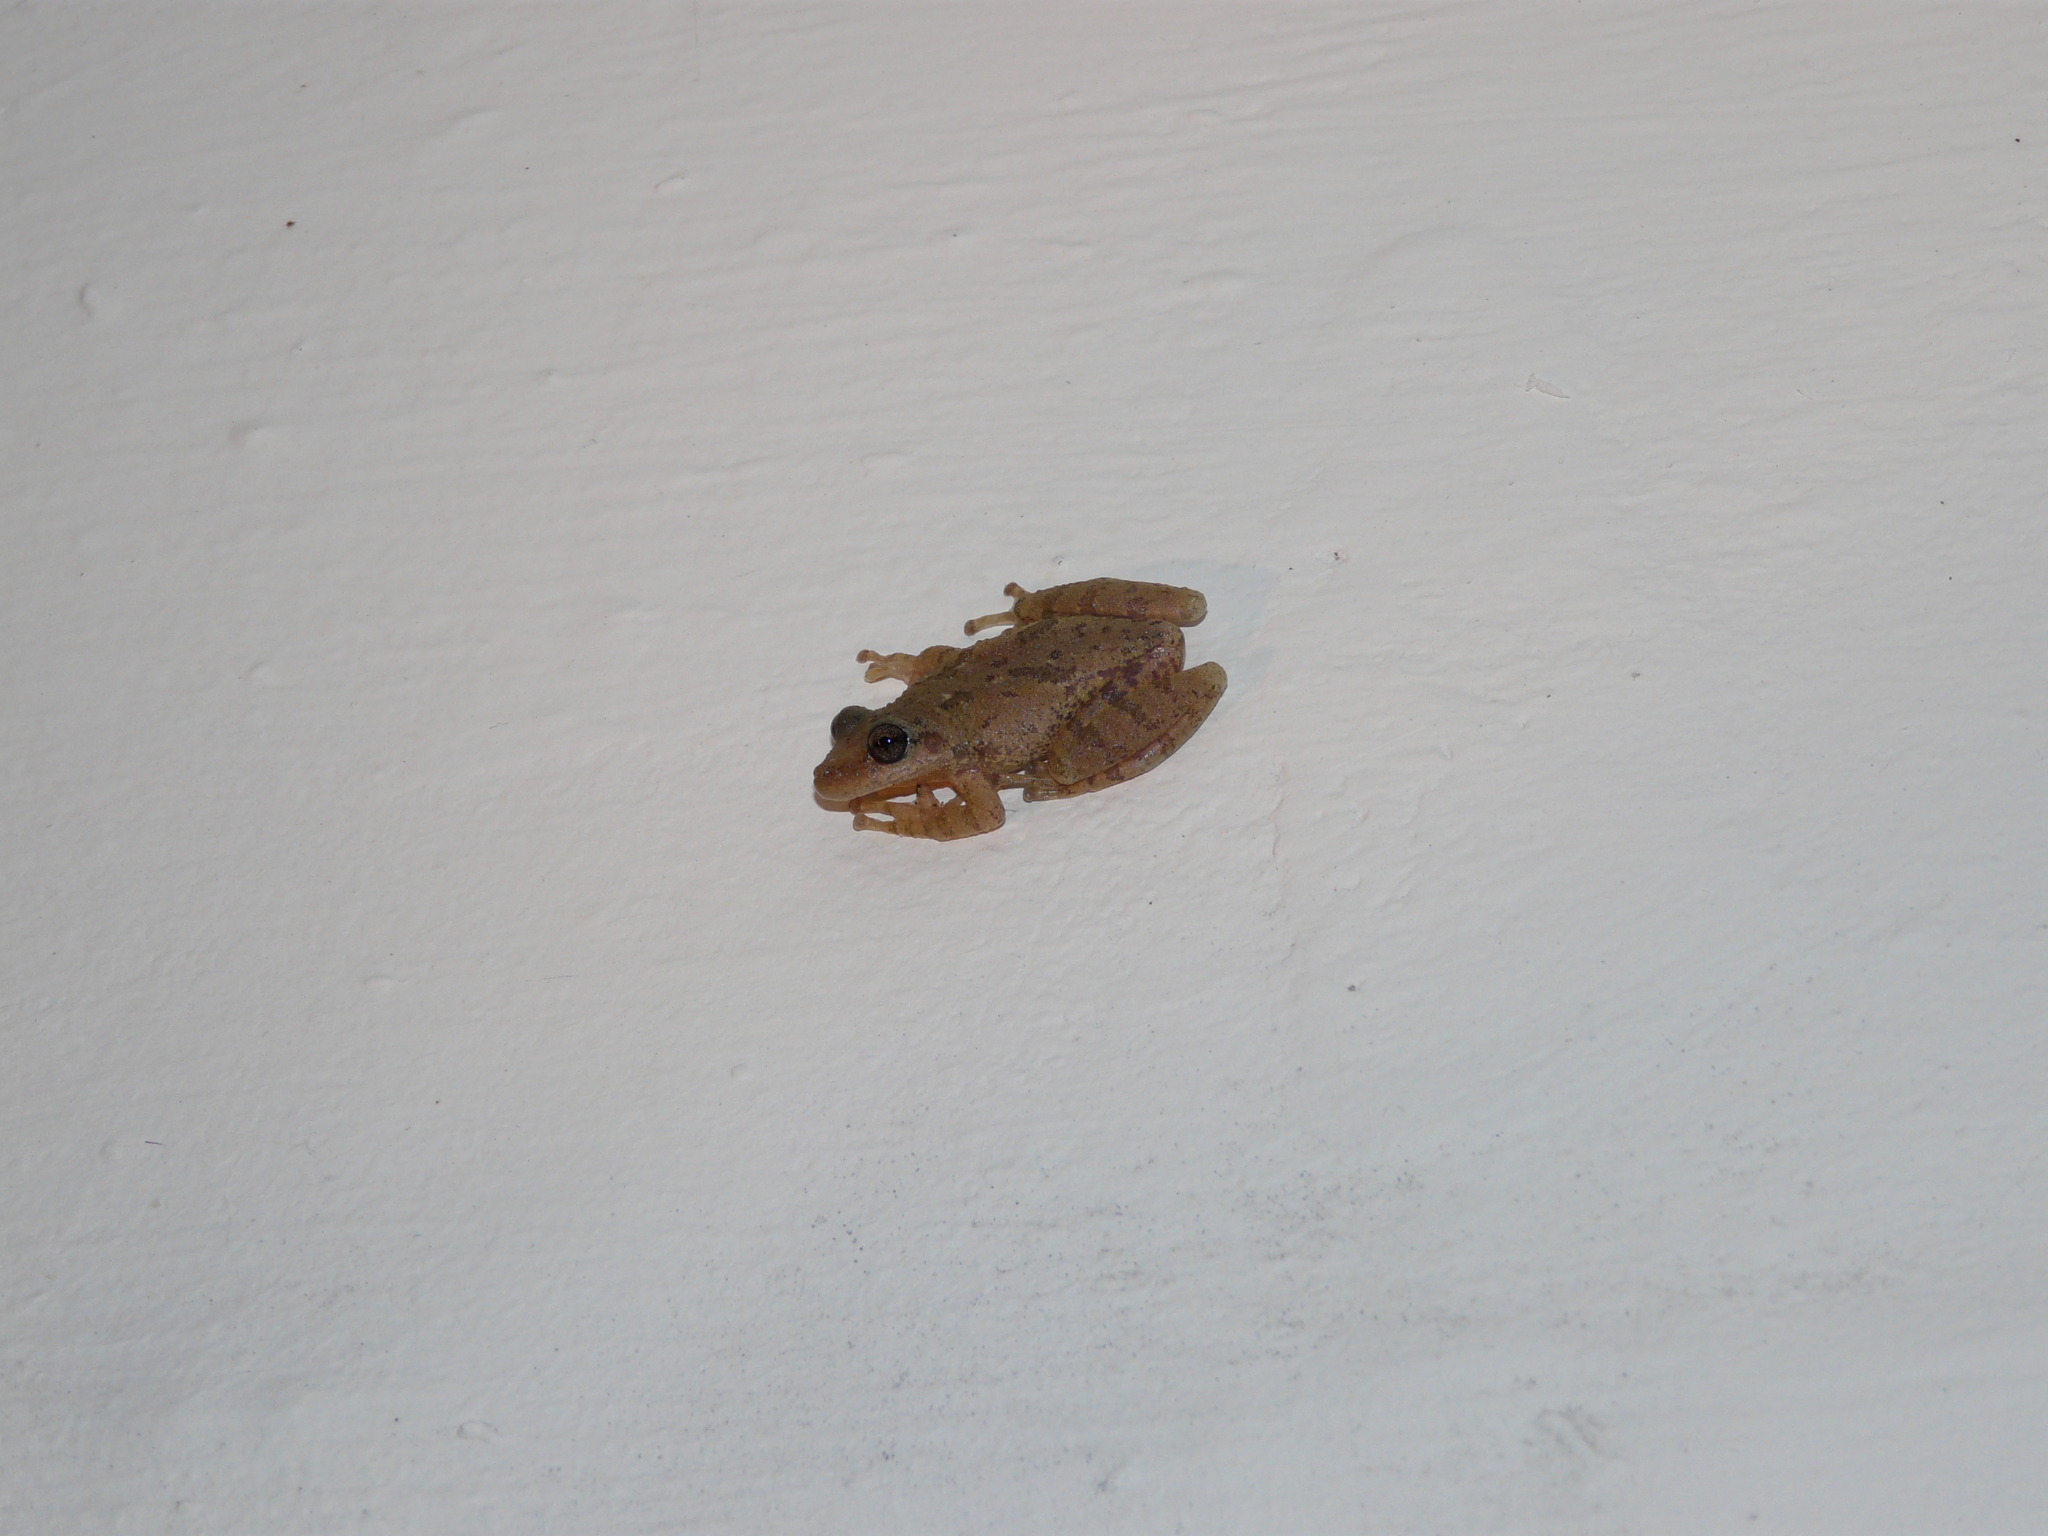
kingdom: Animalia
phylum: Chordata
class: Amphibia
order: Anura
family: Hylidae
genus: Scinax
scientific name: Scinax granulatus
